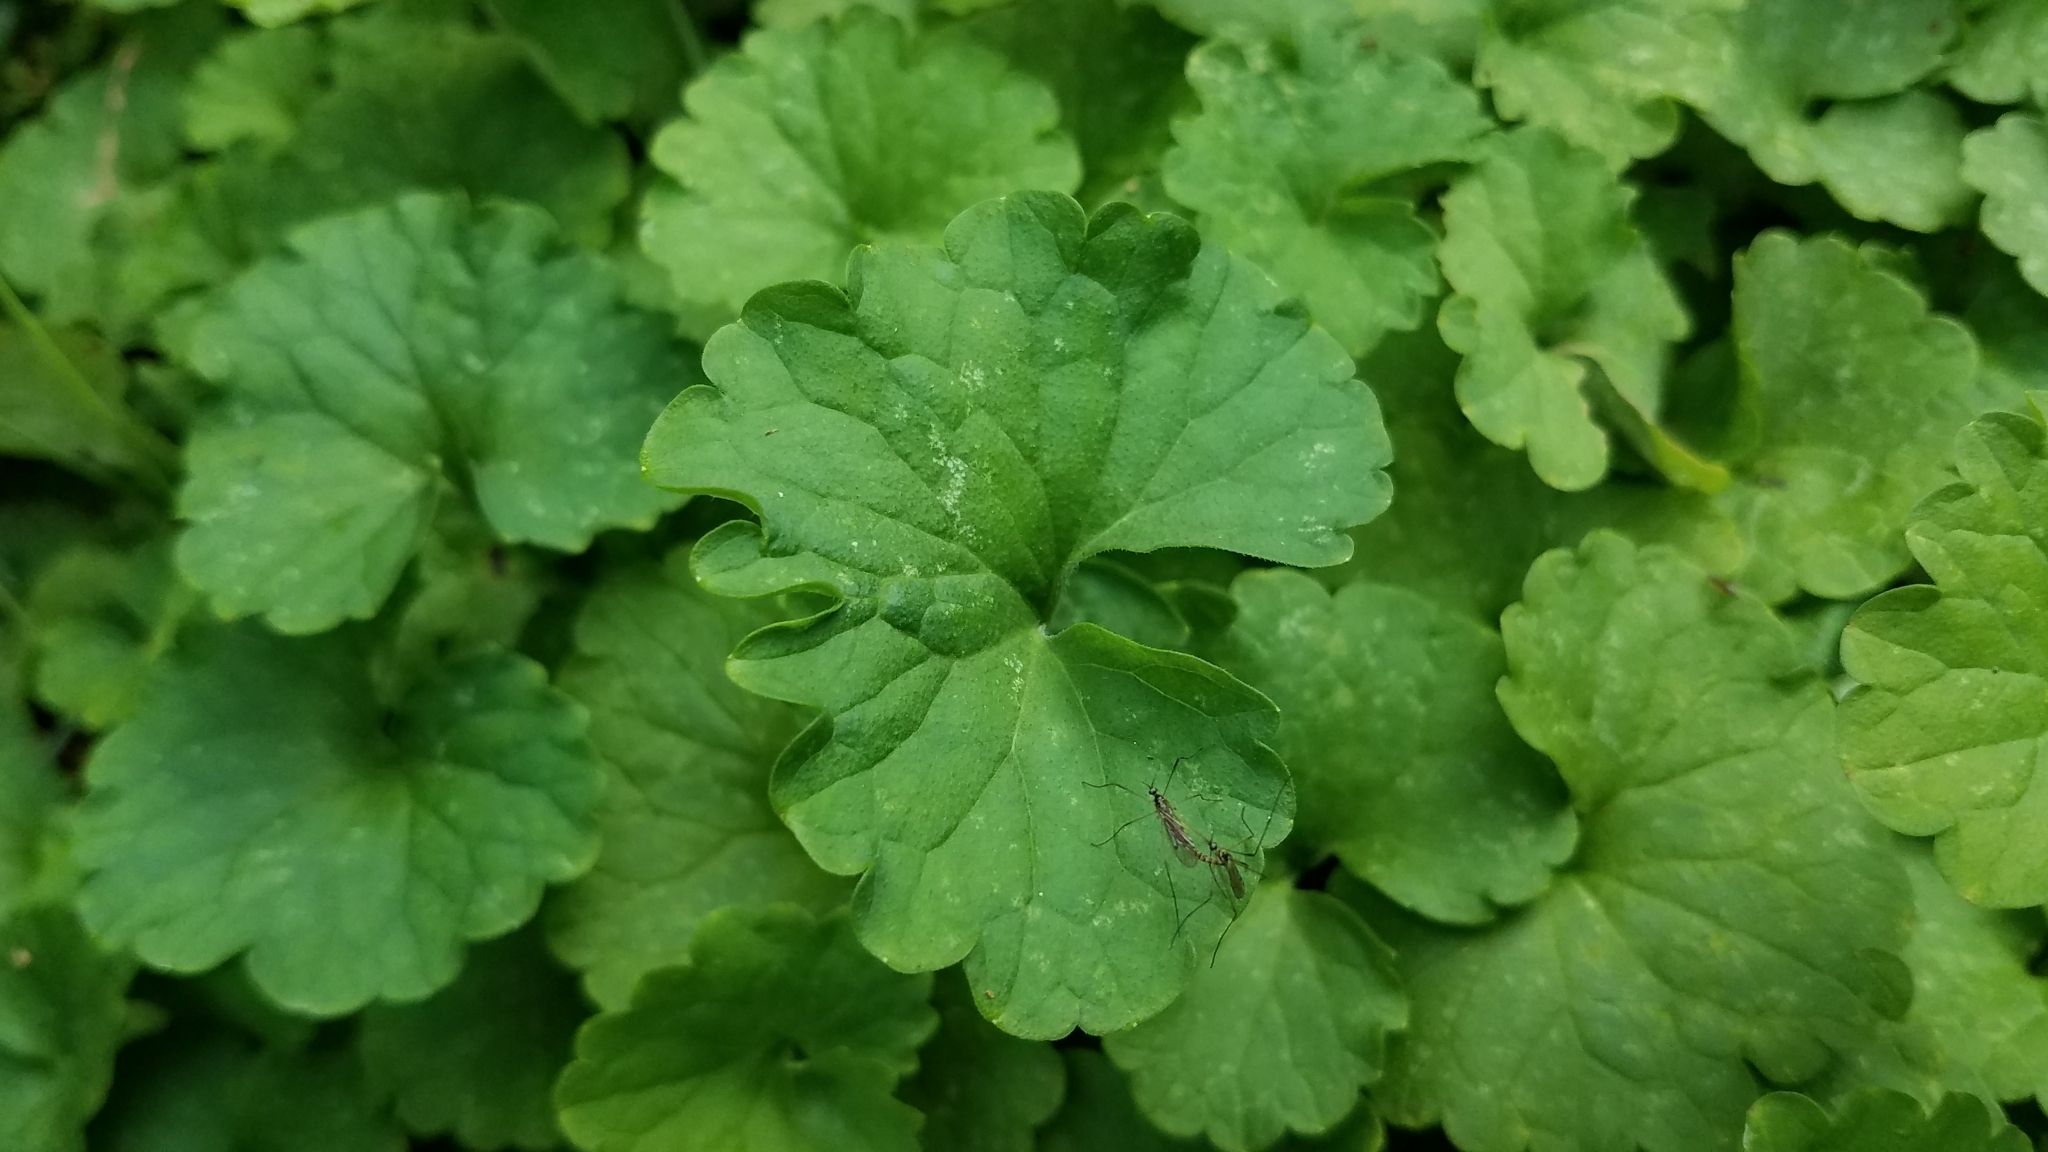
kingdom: Plantae
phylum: Tracheophyta
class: Magnoliopsida
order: Lamiales
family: Lamiaceae
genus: Glechoma
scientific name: Glechoma hederacea
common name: Ground ivy
